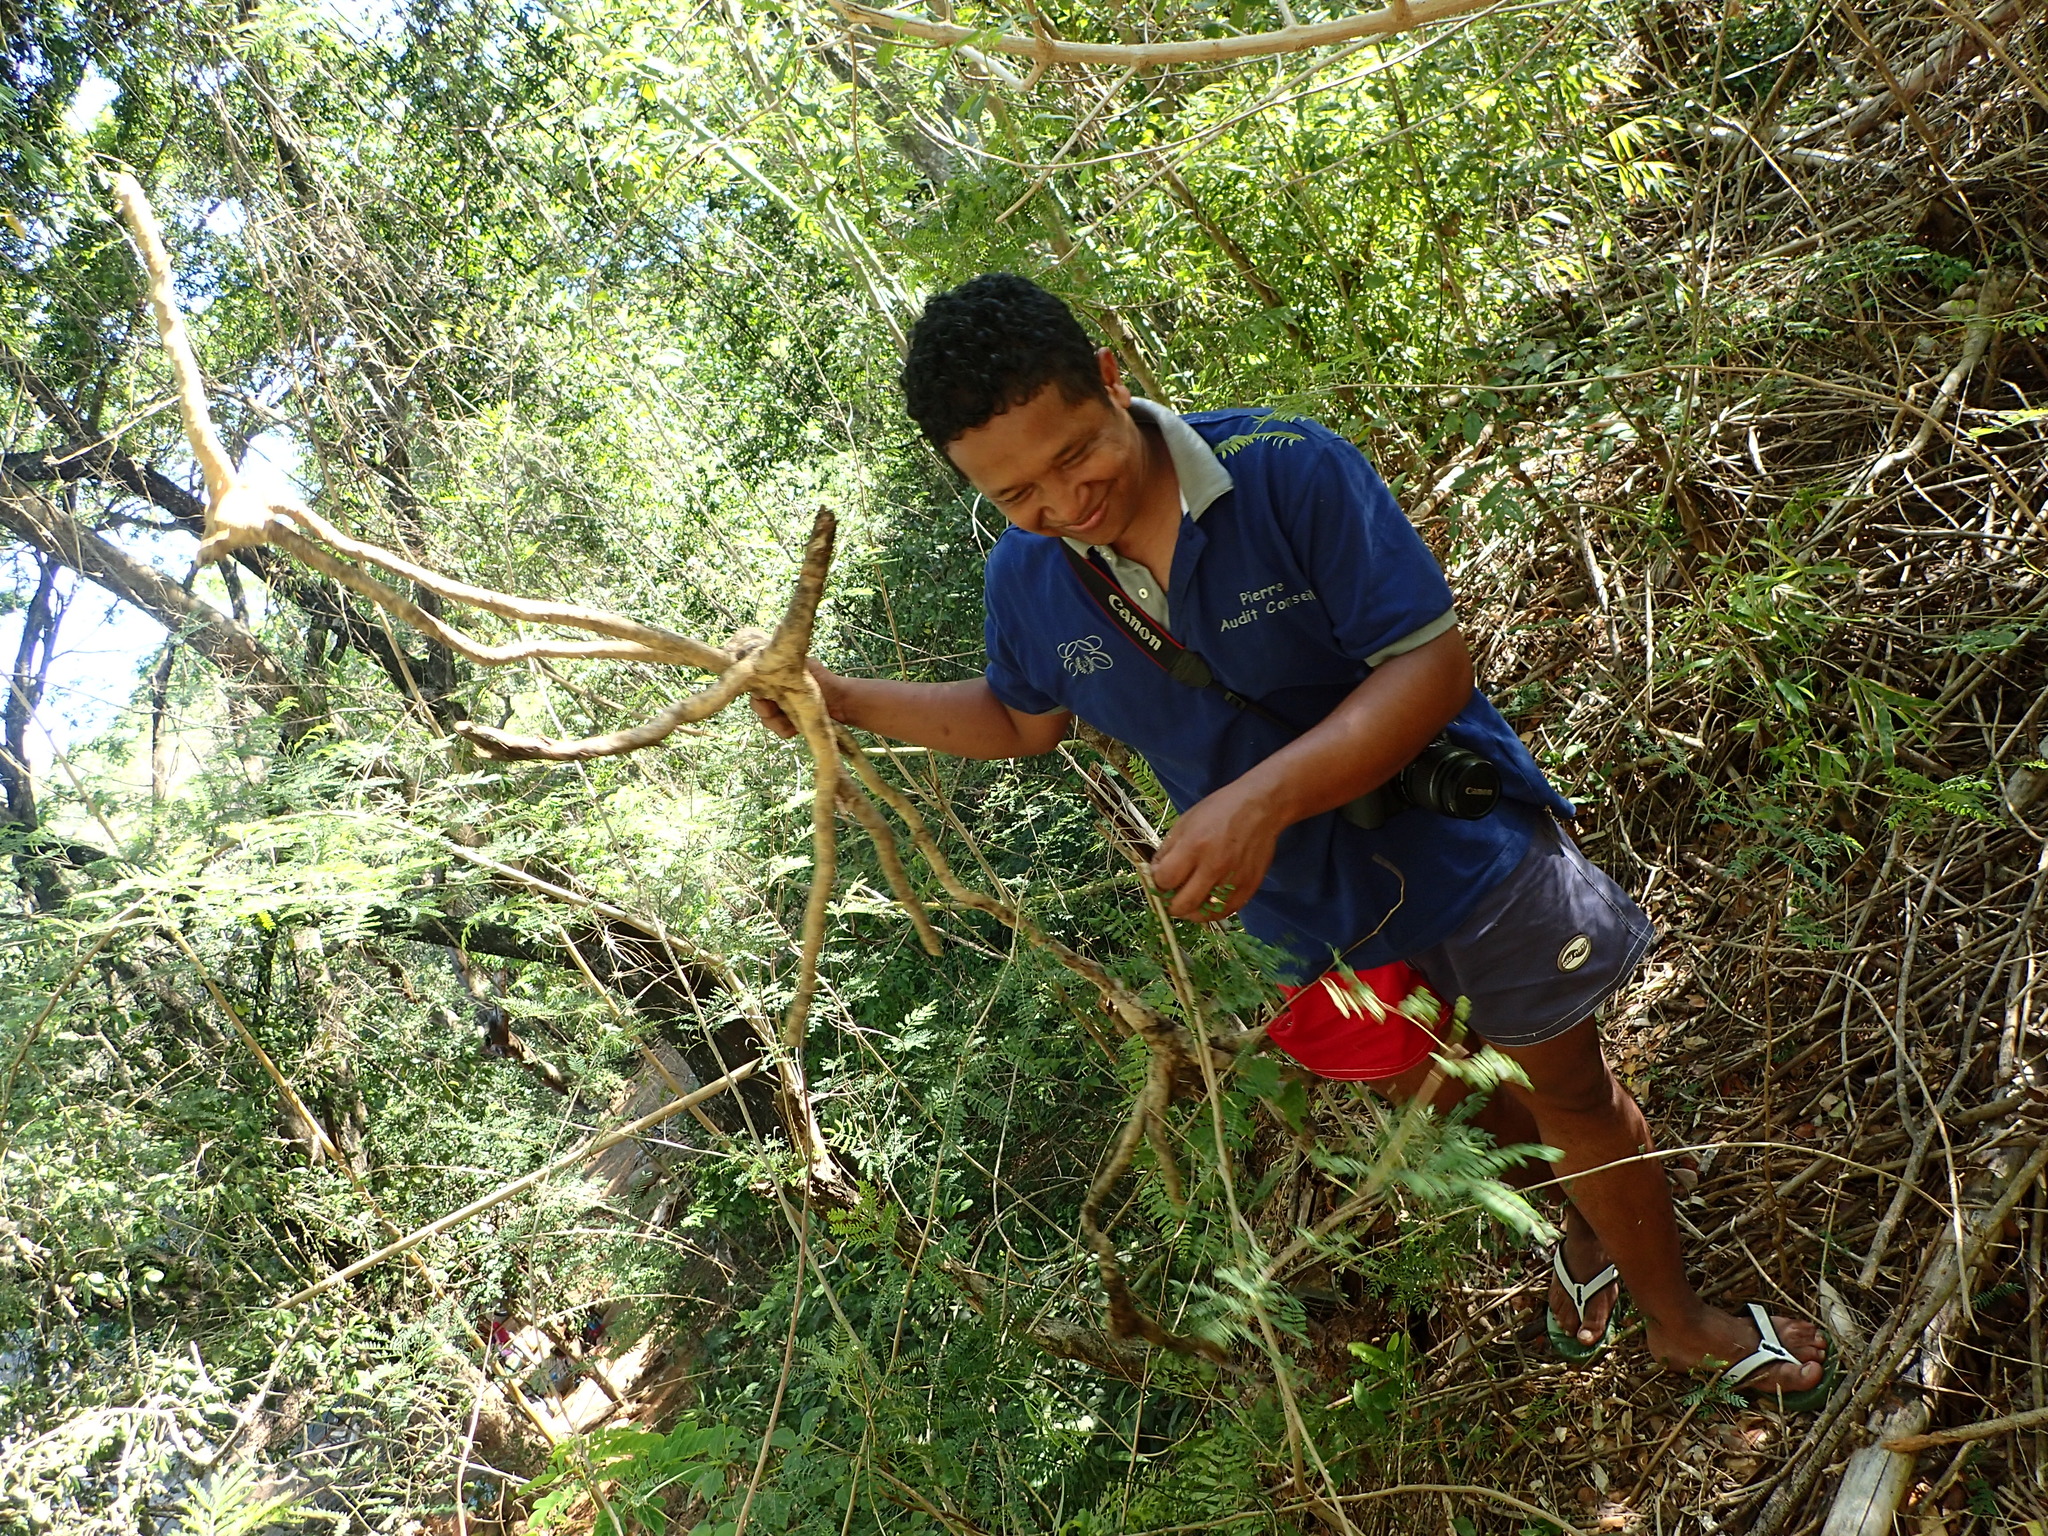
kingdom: Plantae
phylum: Tracheophyta
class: Liliopsida
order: Poales
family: Poaceae
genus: Valiha
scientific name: Valiha diffusa
